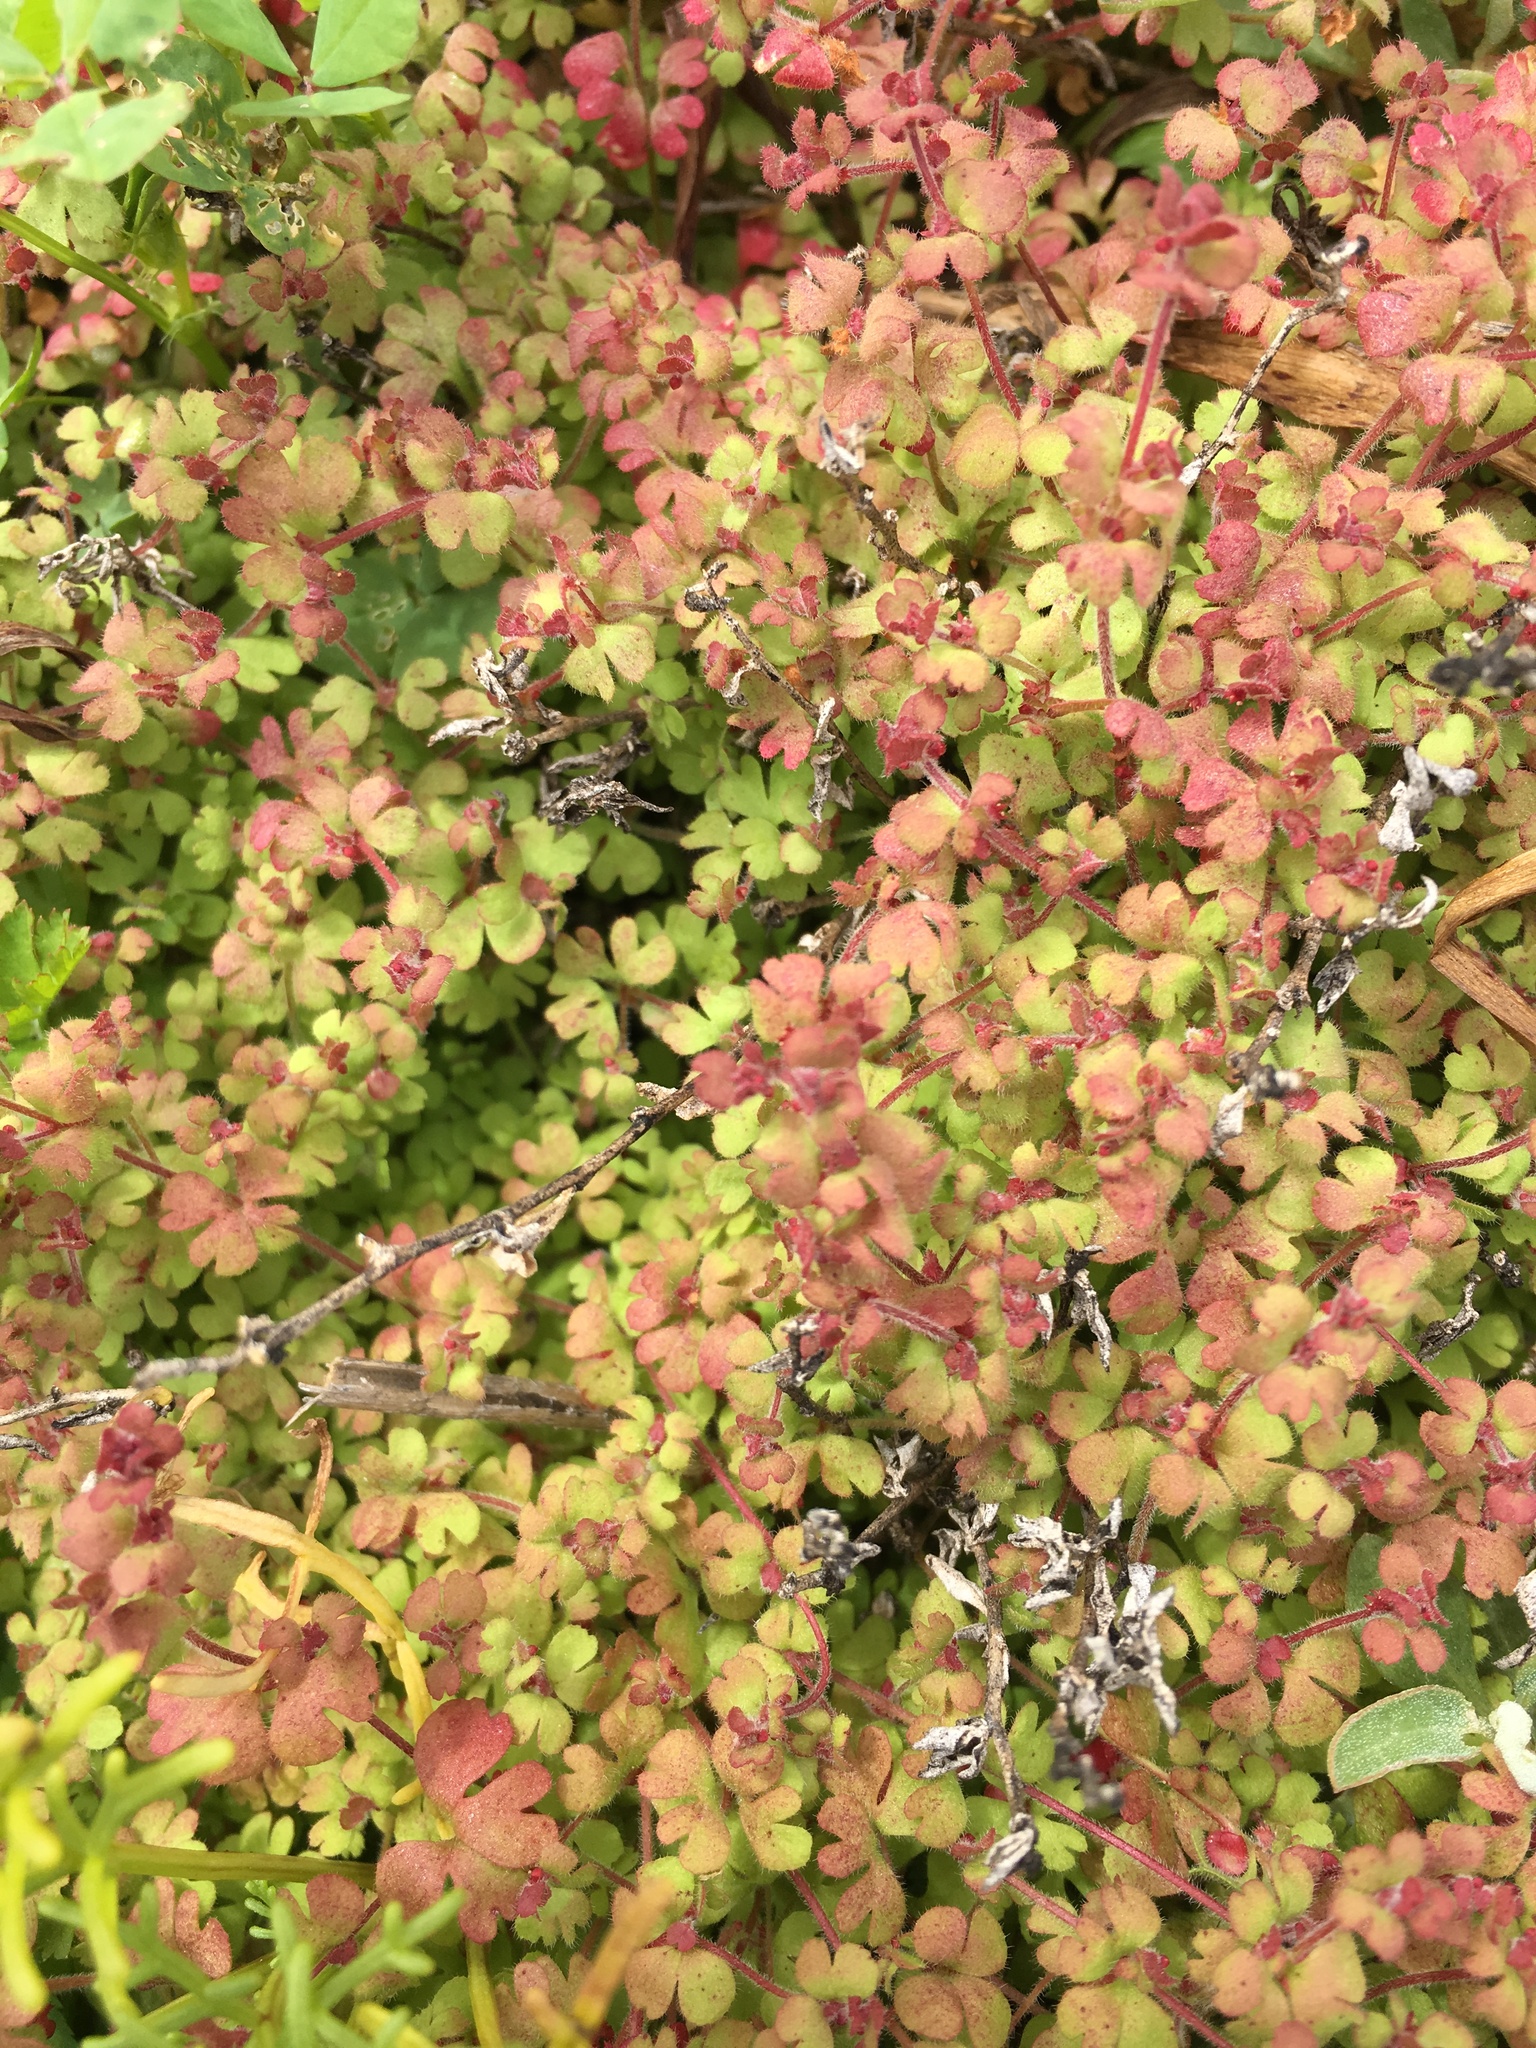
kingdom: Plantae
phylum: Tracheophyta
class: Magnoliopsida
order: Caryophyllales
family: Polygonaceae
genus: Pterostegia
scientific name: Pterostegia drymarioides
